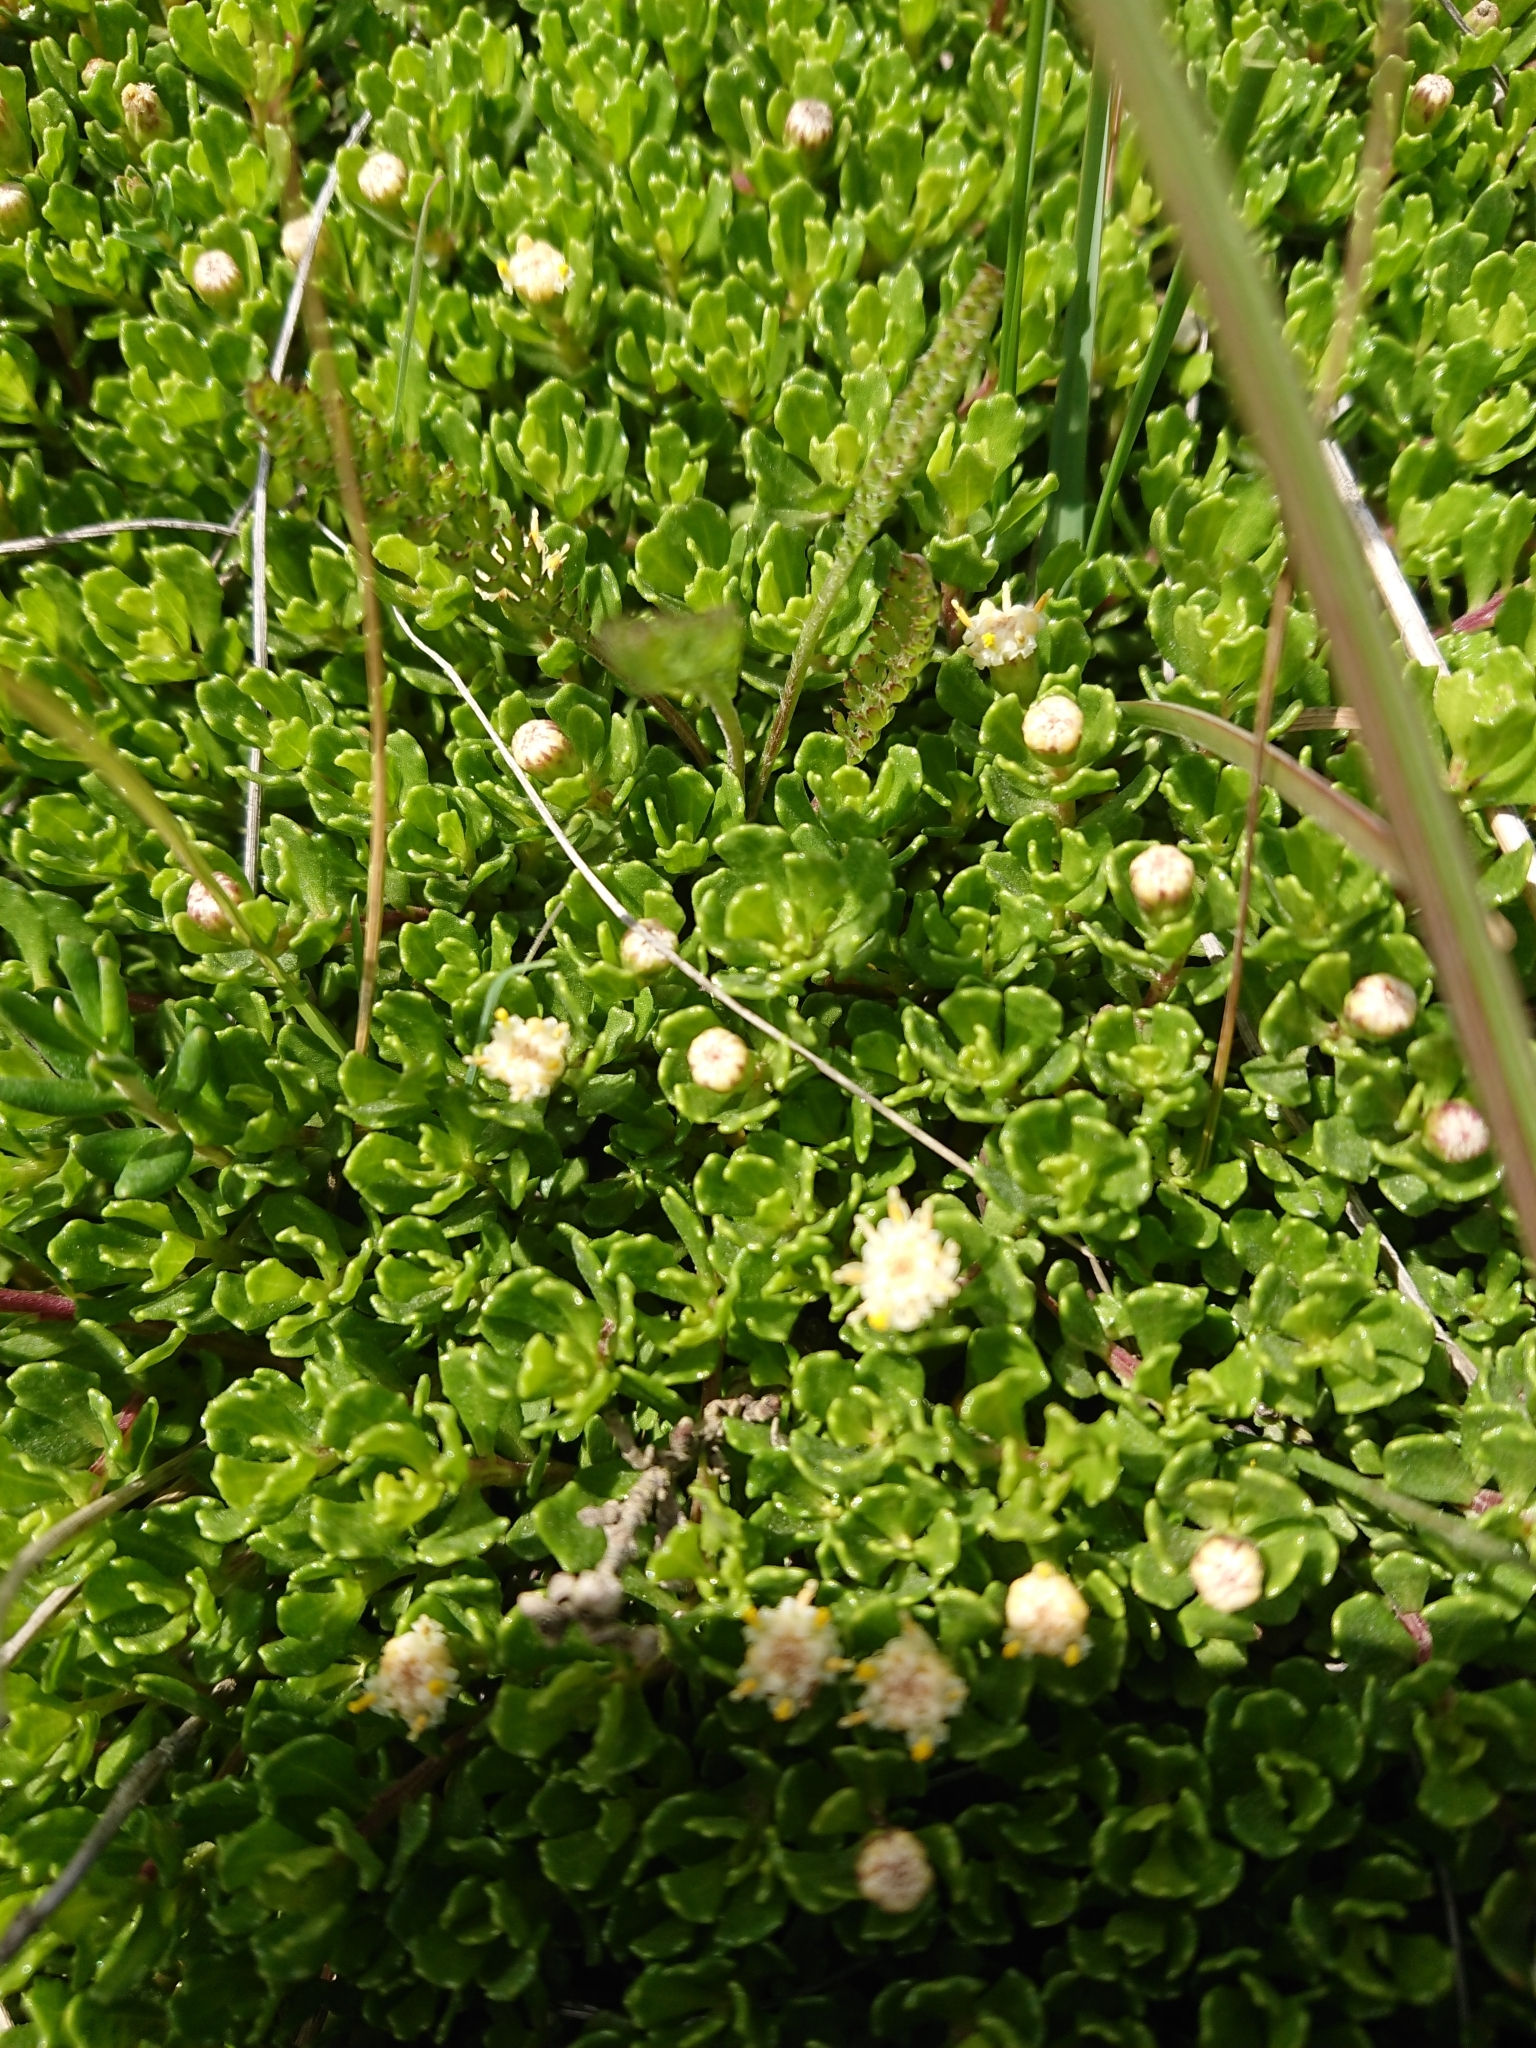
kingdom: Plantae
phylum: Tracheophyta
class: Magnoliopsida
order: Asterales
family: Asteraceae
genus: Baccharis
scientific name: Baccharis magellanica
